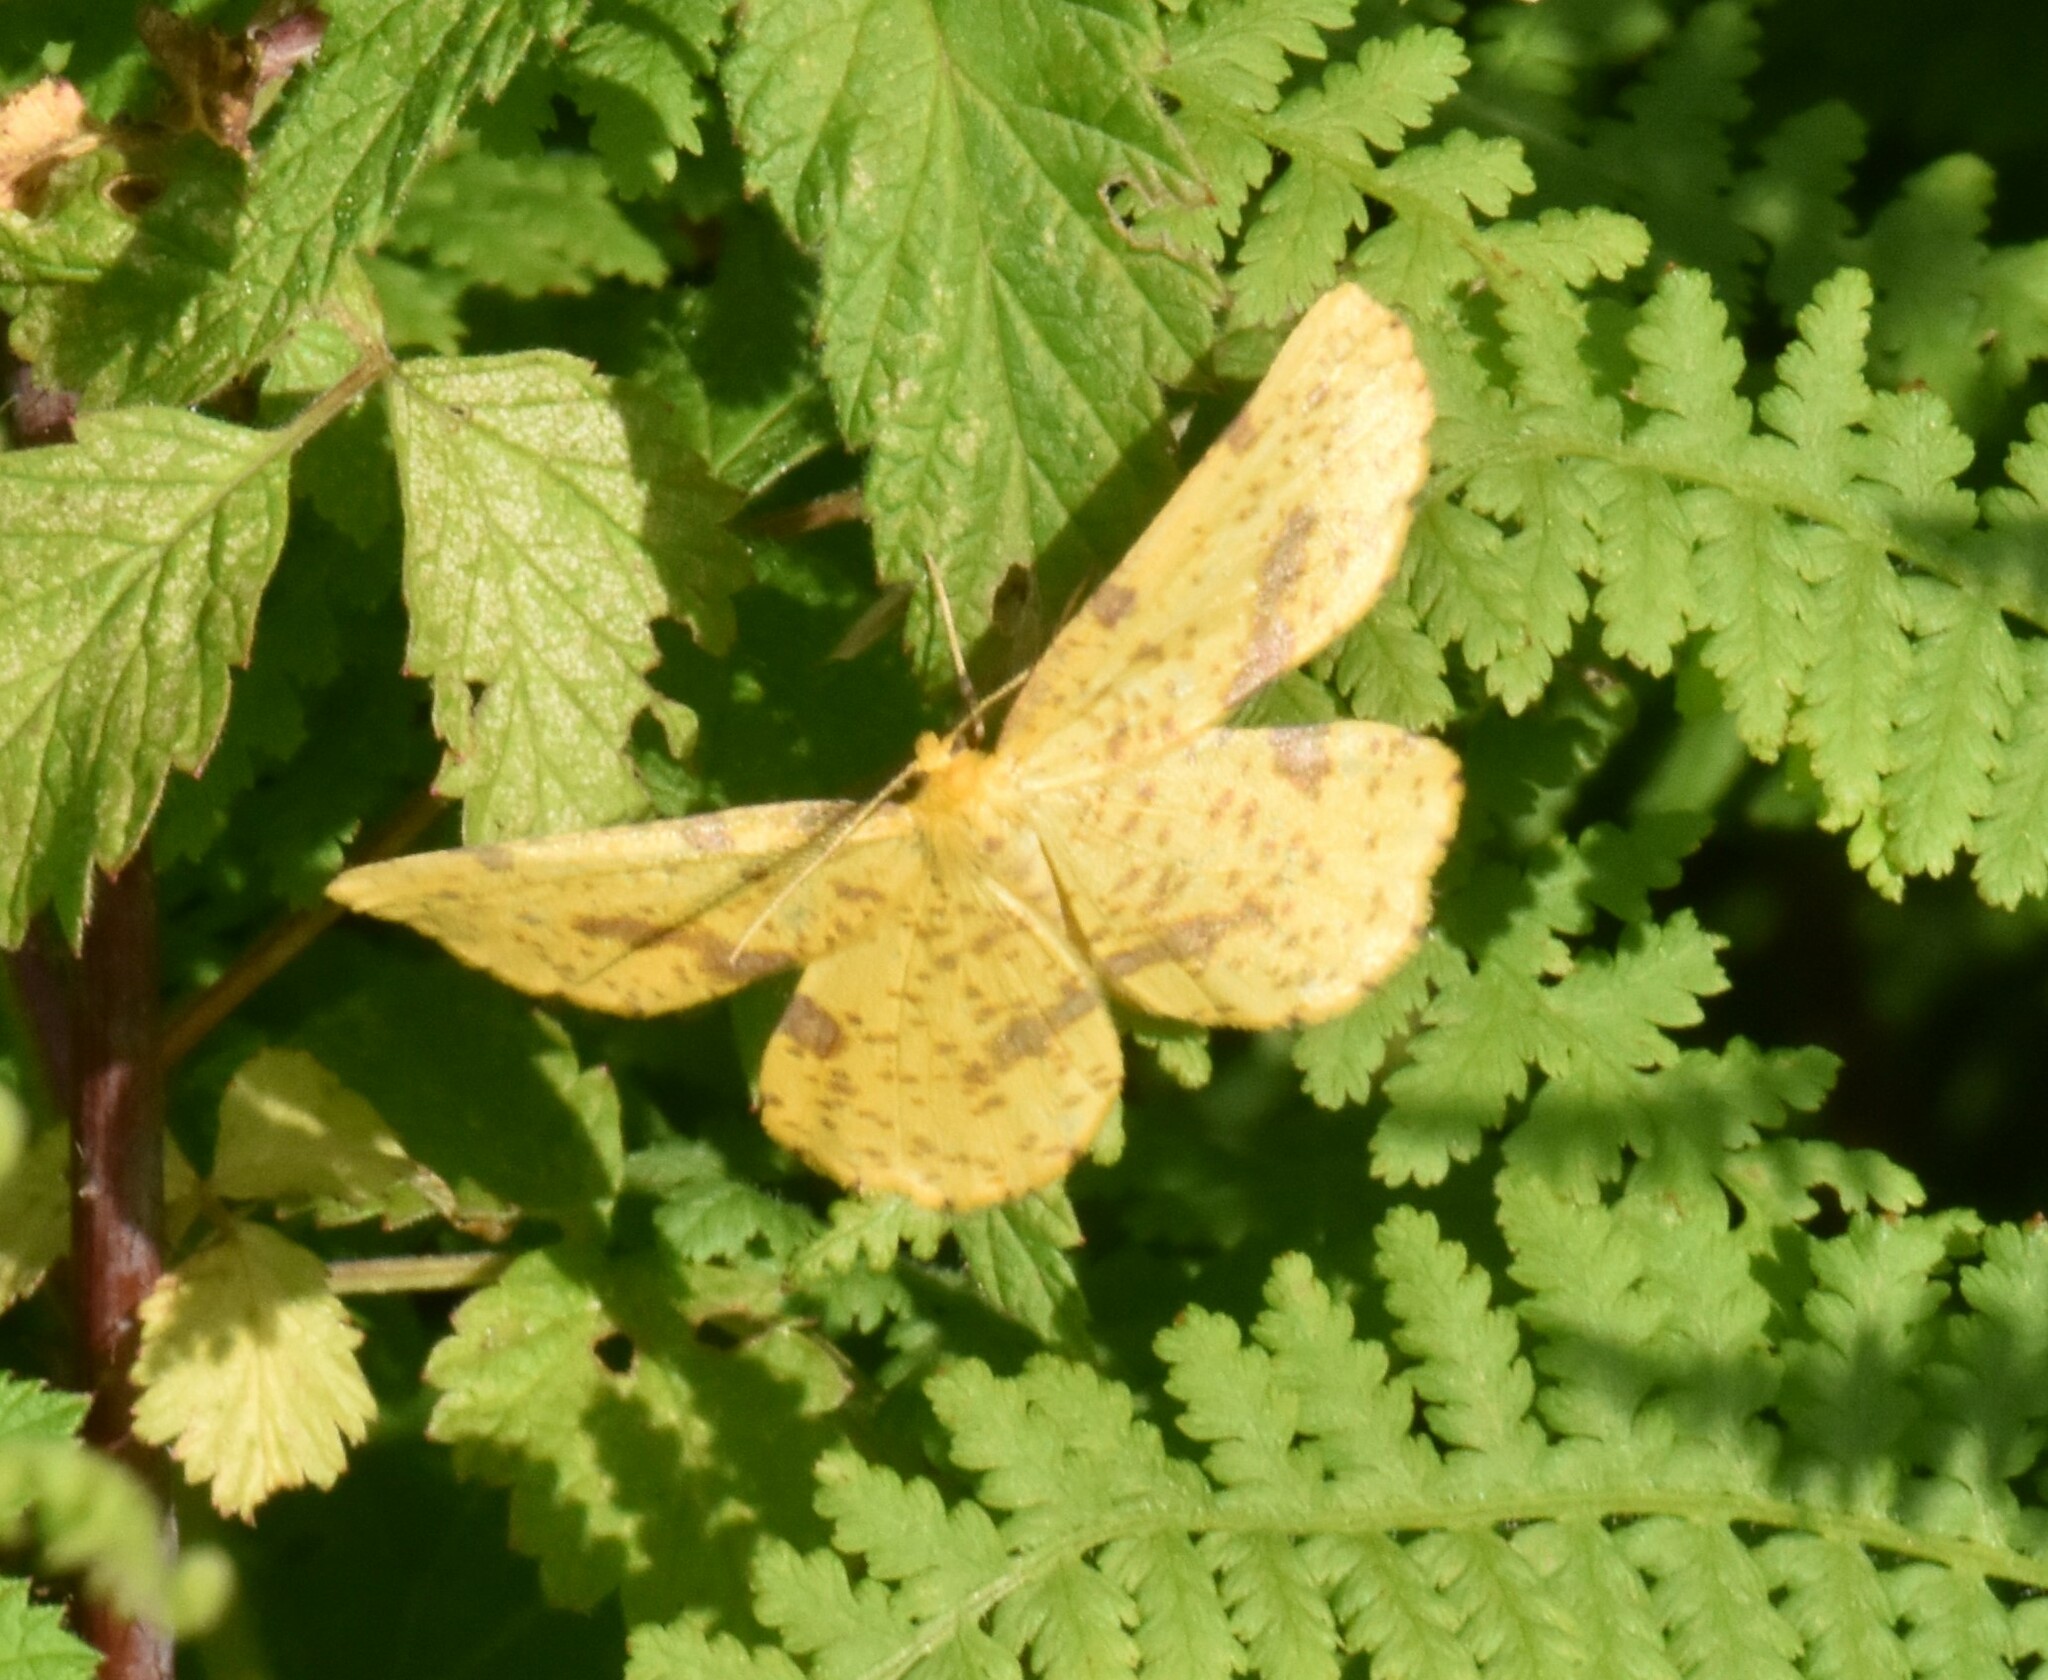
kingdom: Animalia
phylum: Arthropoda
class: Insecta
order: Lepidoptera
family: Geometridae
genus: Xanthotype
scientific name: Xanthotype
